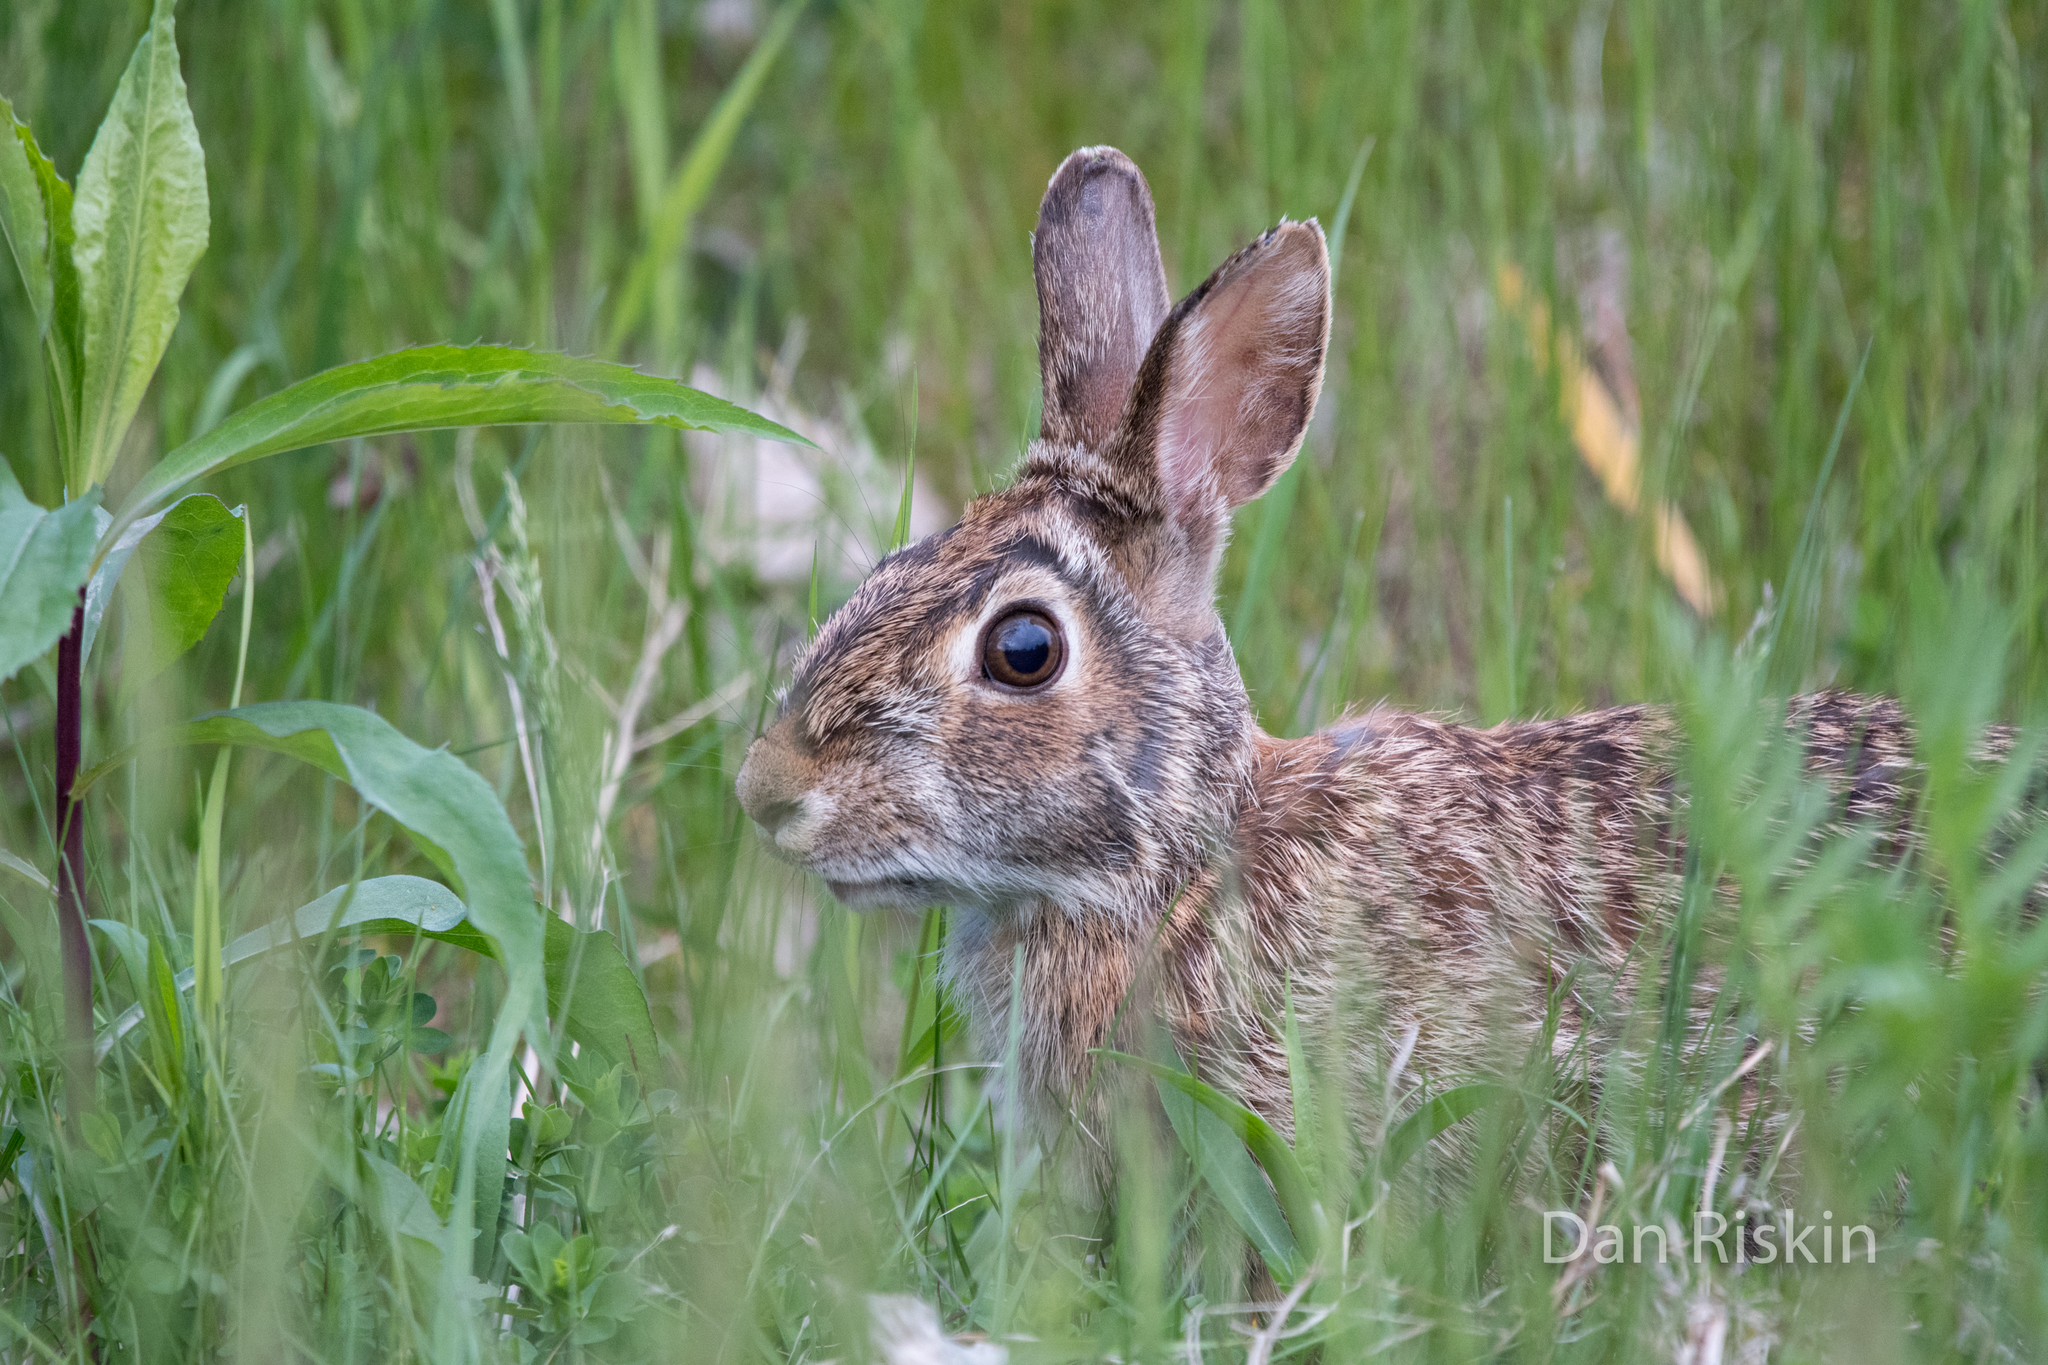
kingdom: Animalia
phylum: Chordata
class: Mammalia
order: Lagomorpha
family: Leporidae
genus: Sylvilagus
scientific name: Sylvilagus floridanus
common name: Eastern cottontail
